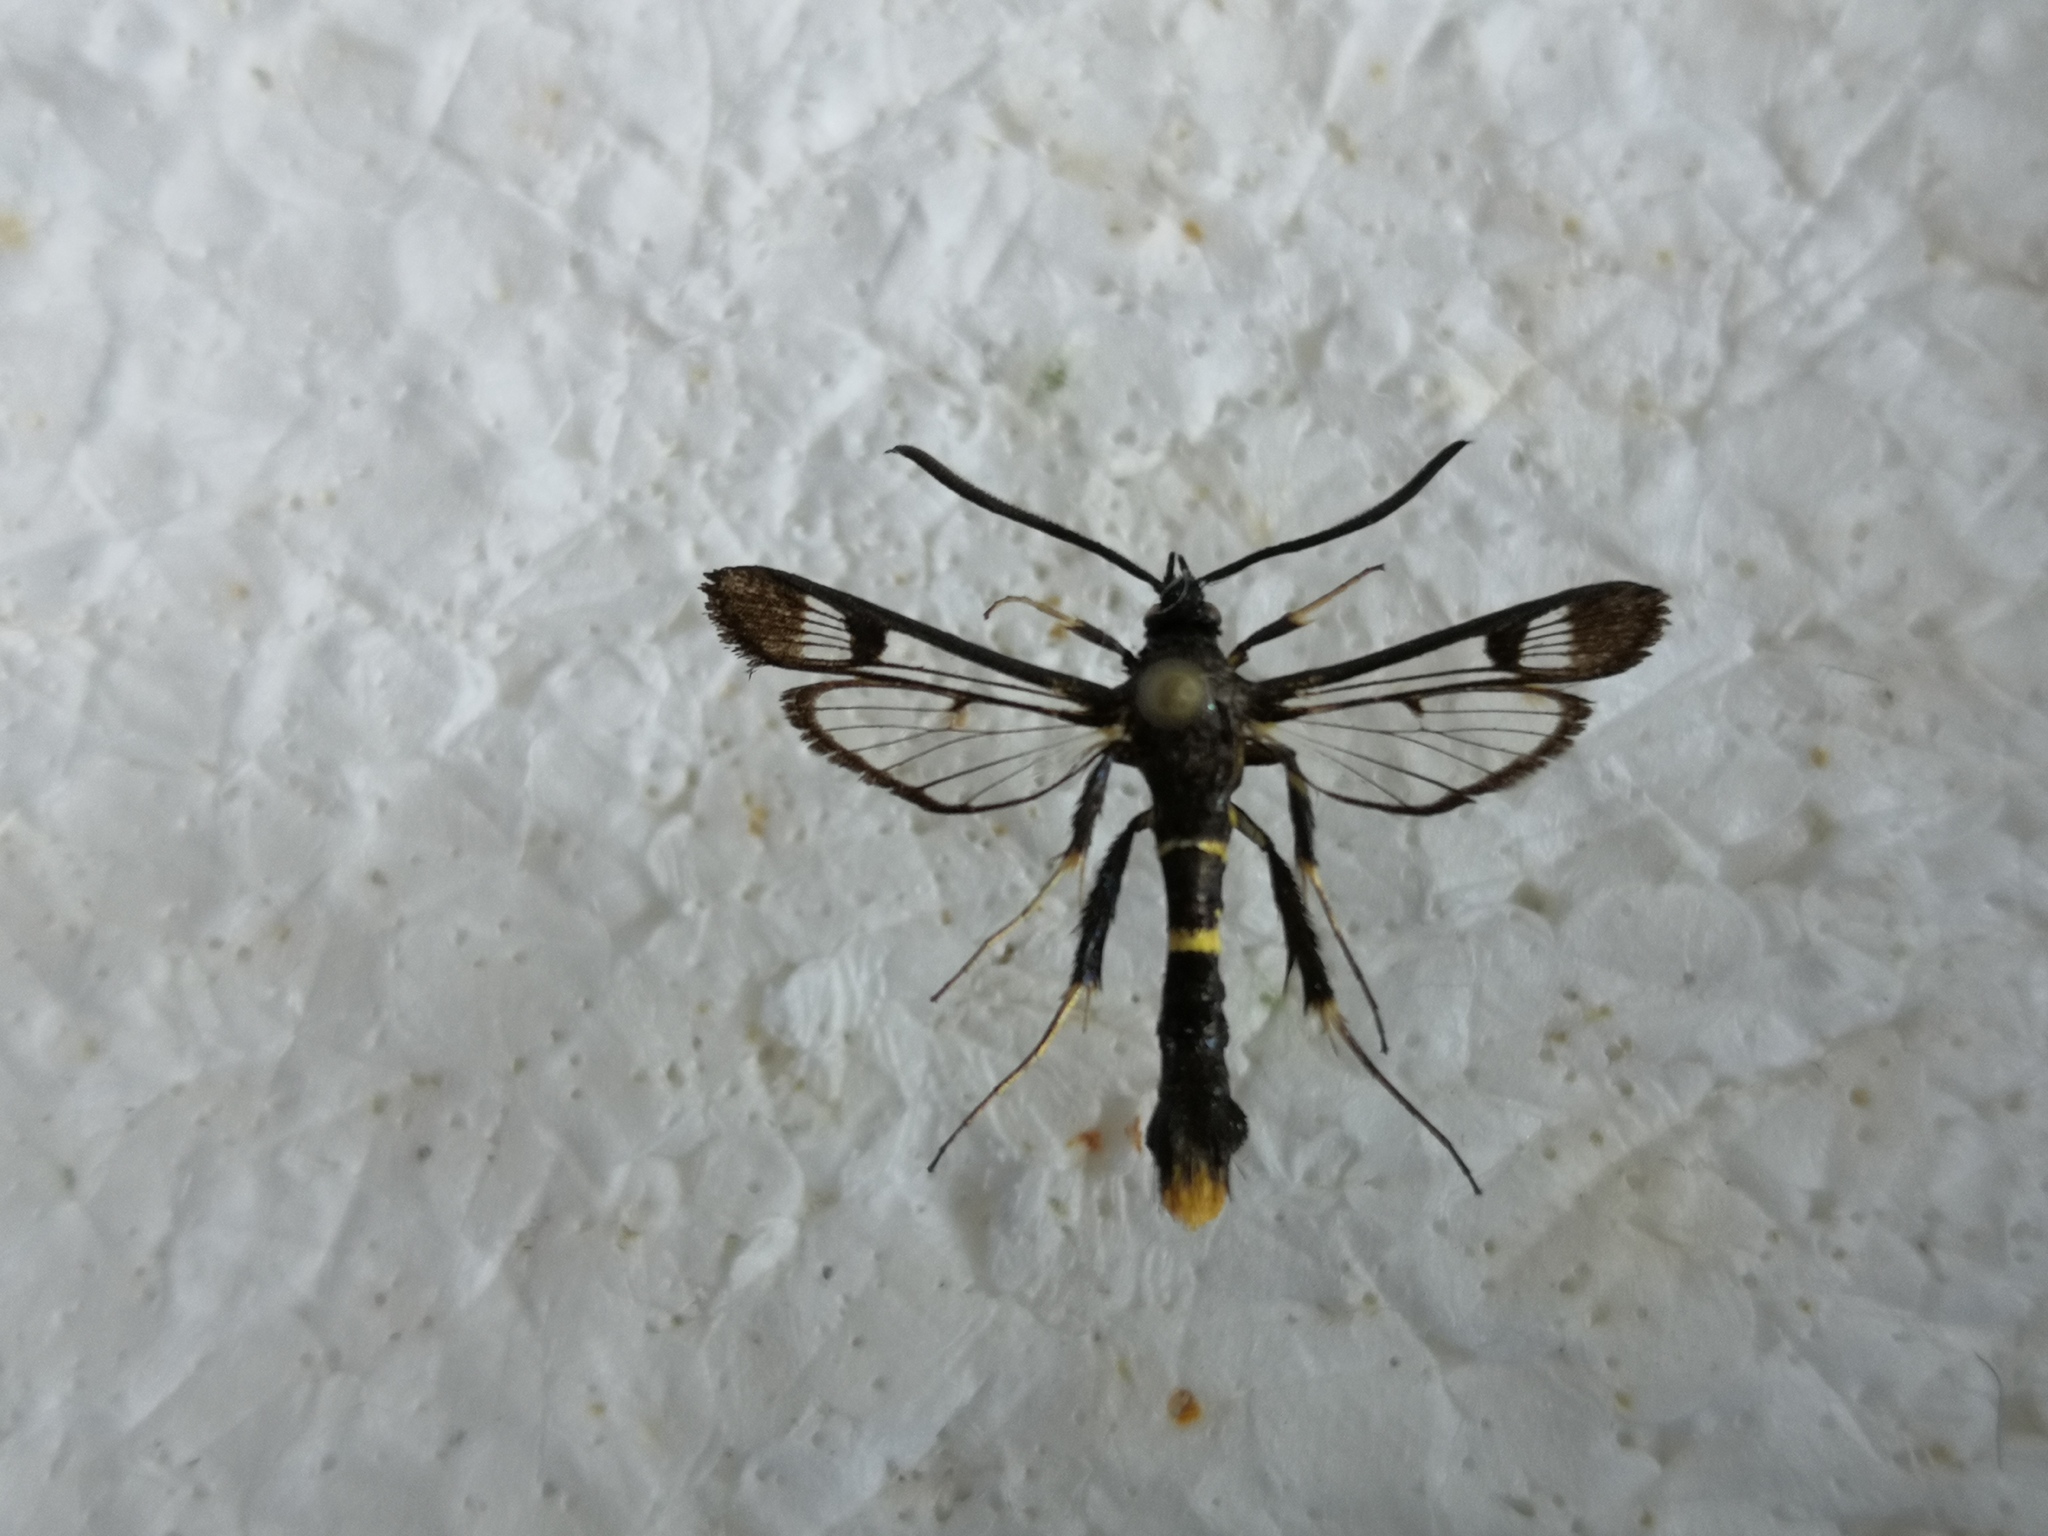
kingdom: Animalia
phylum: Arthropoda
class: Insecta
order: Lepidoptera
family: Sesiidae
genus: Synanthedon
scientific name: Synanthedon andrenaeformis
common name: Orange-tailed clearwing
